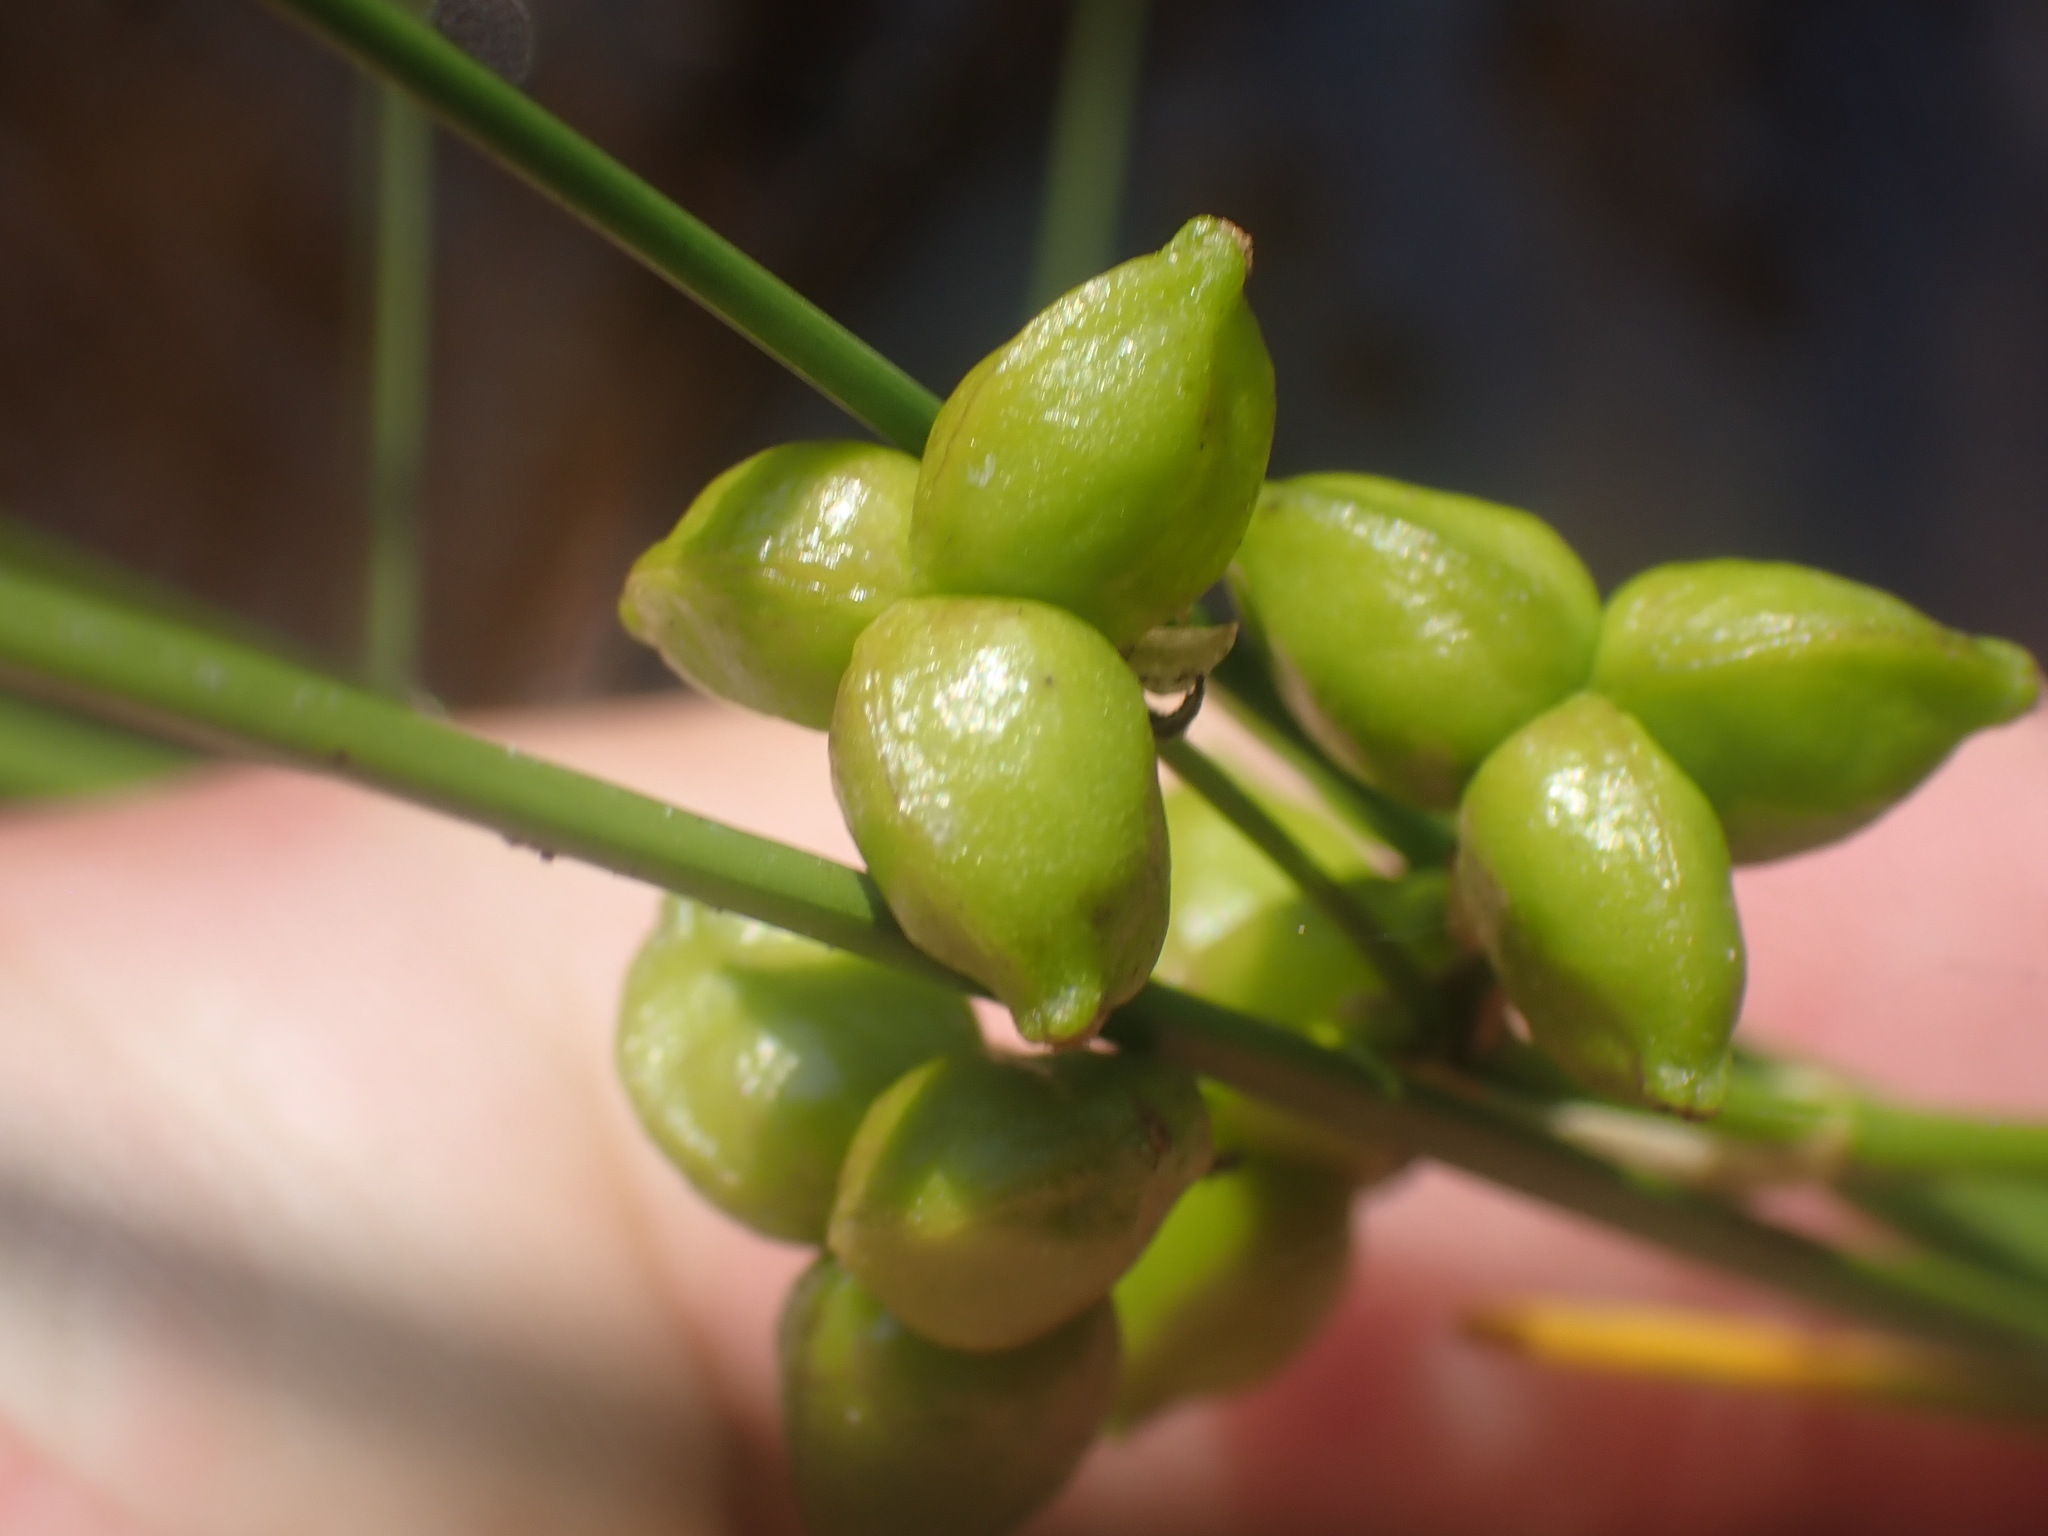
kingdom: Plantae
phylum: Tracheophyta
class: Liliopsida
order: Alismatales
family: Scheuchzeriaceae
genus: Scheuchzeria
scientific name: Scheuchzeria palustris
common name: Rannoch-rush
